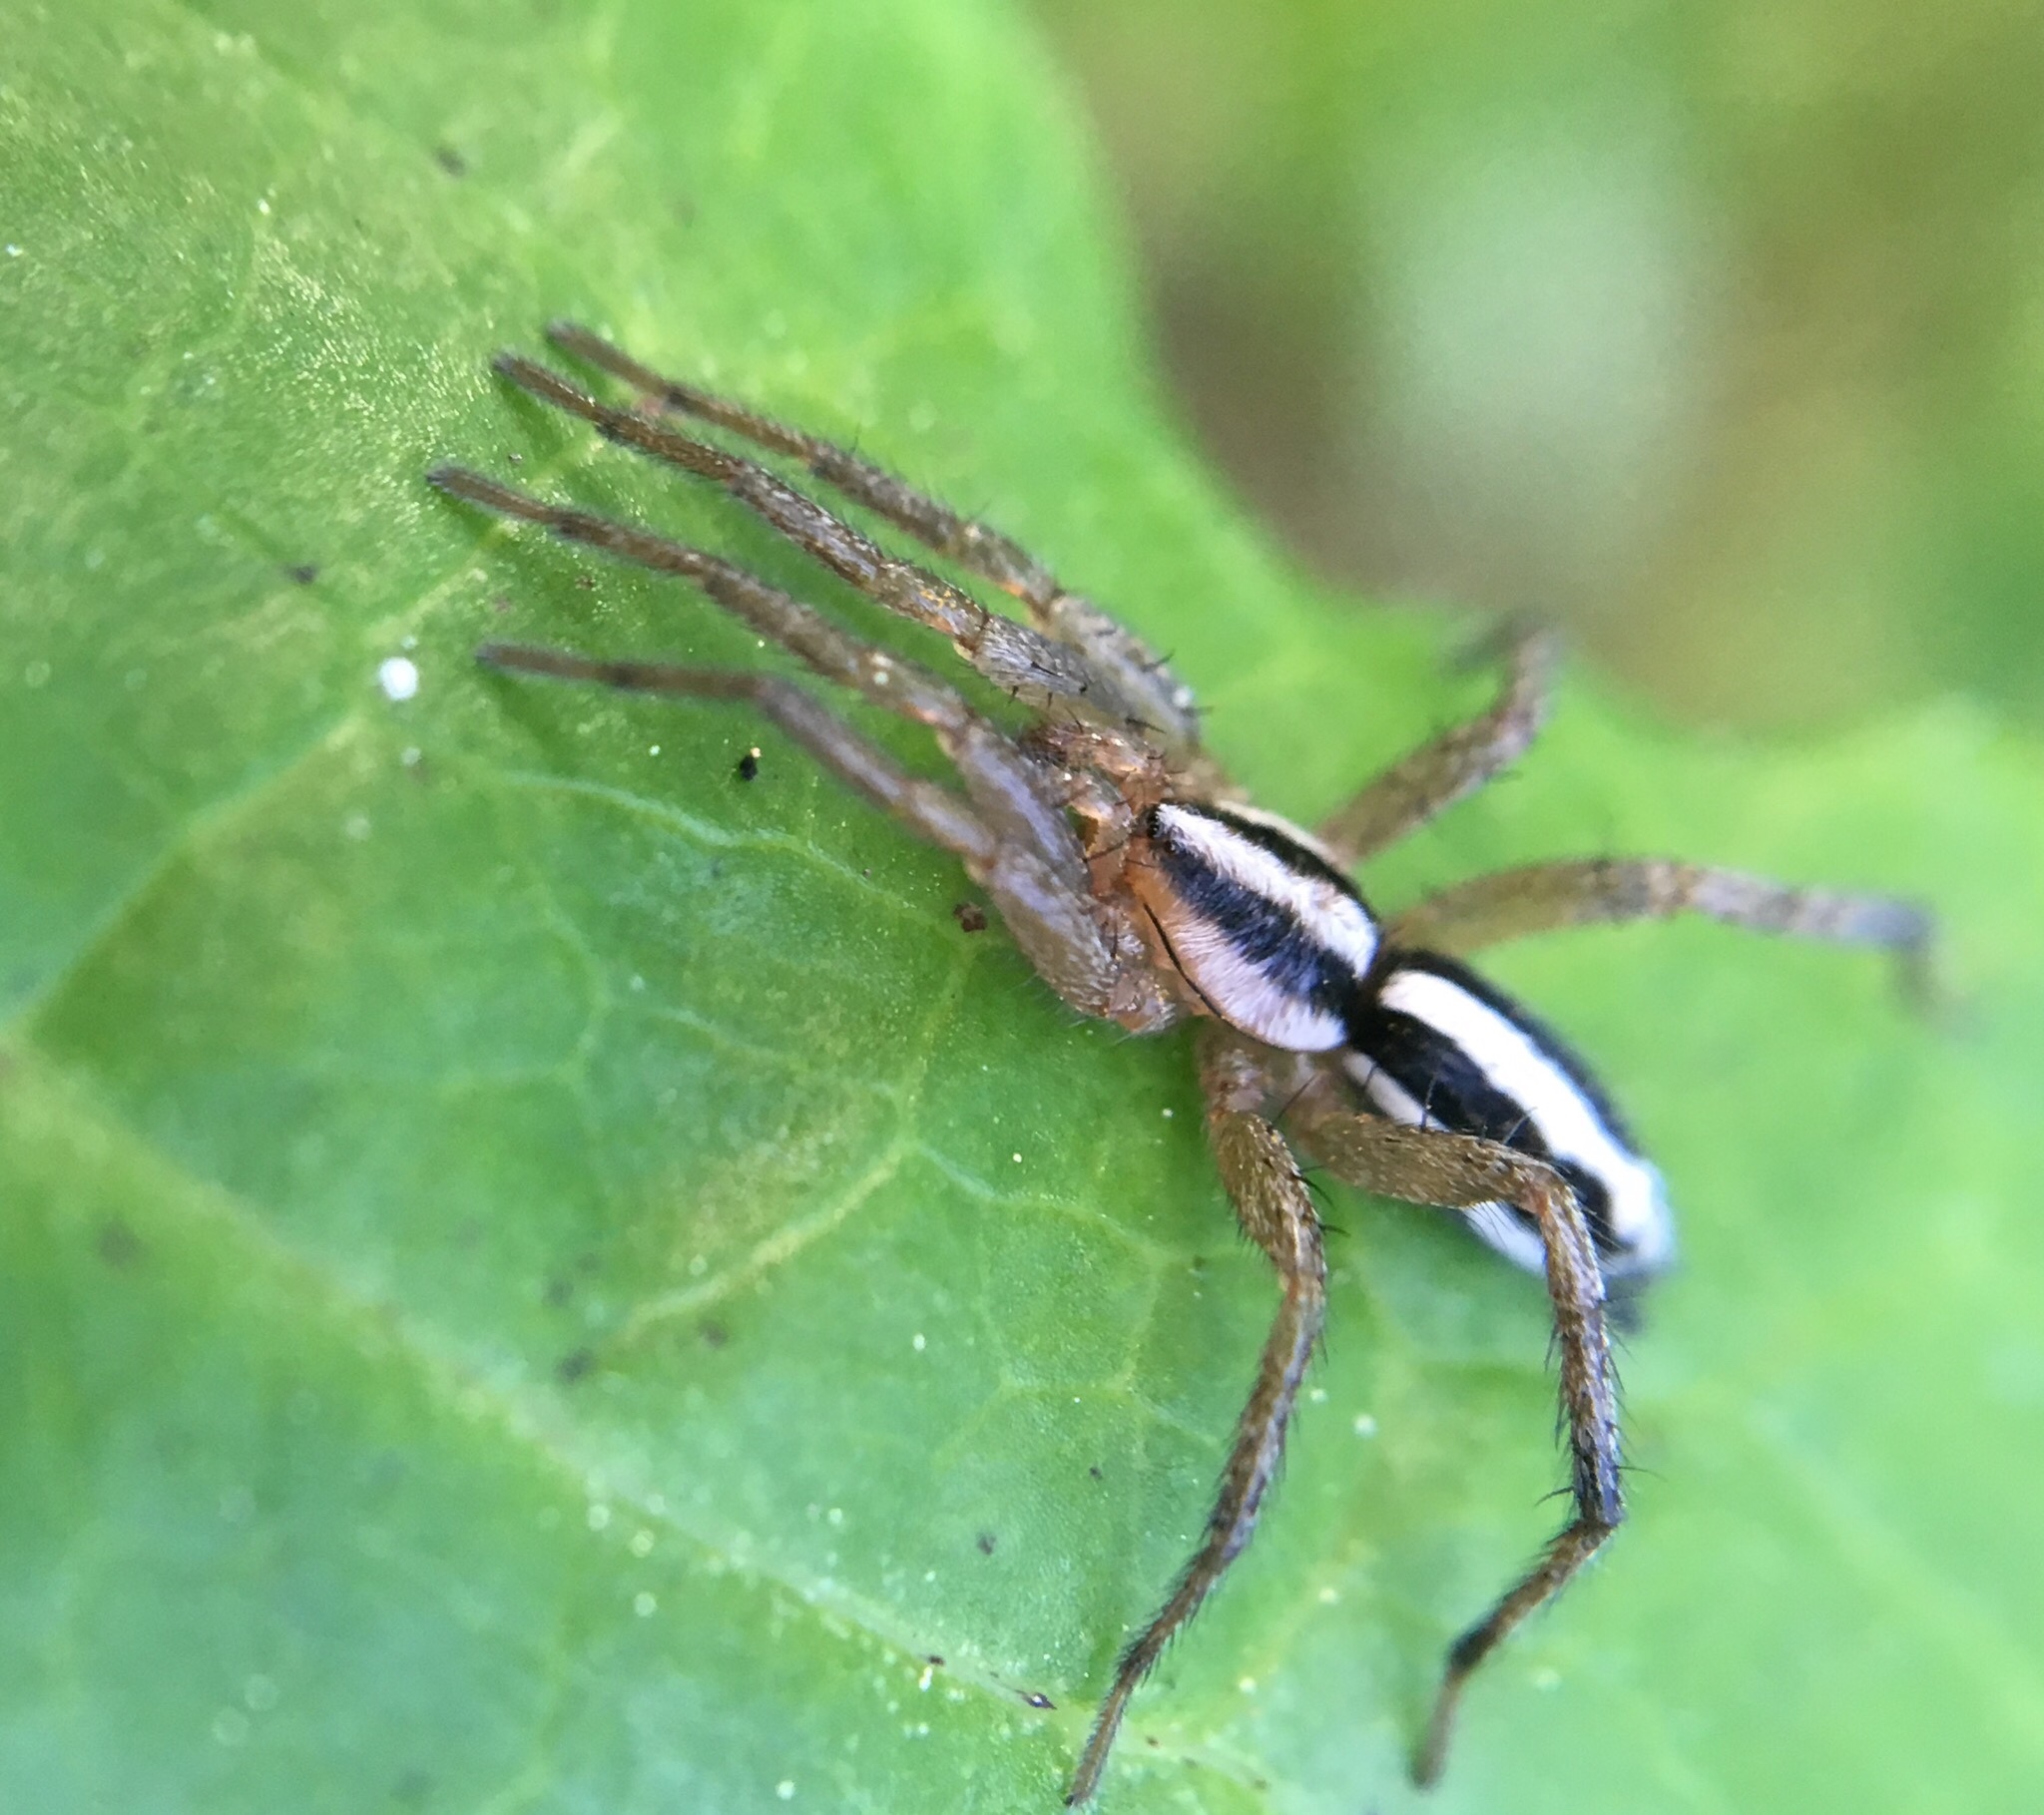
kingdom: Animalia
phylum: Arthropoda
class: Arachnida
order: Araneae
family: Gnaphosidae
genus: Cesonia
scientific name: Cesonia bilineata
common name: Two-lined stealthy ground spider
